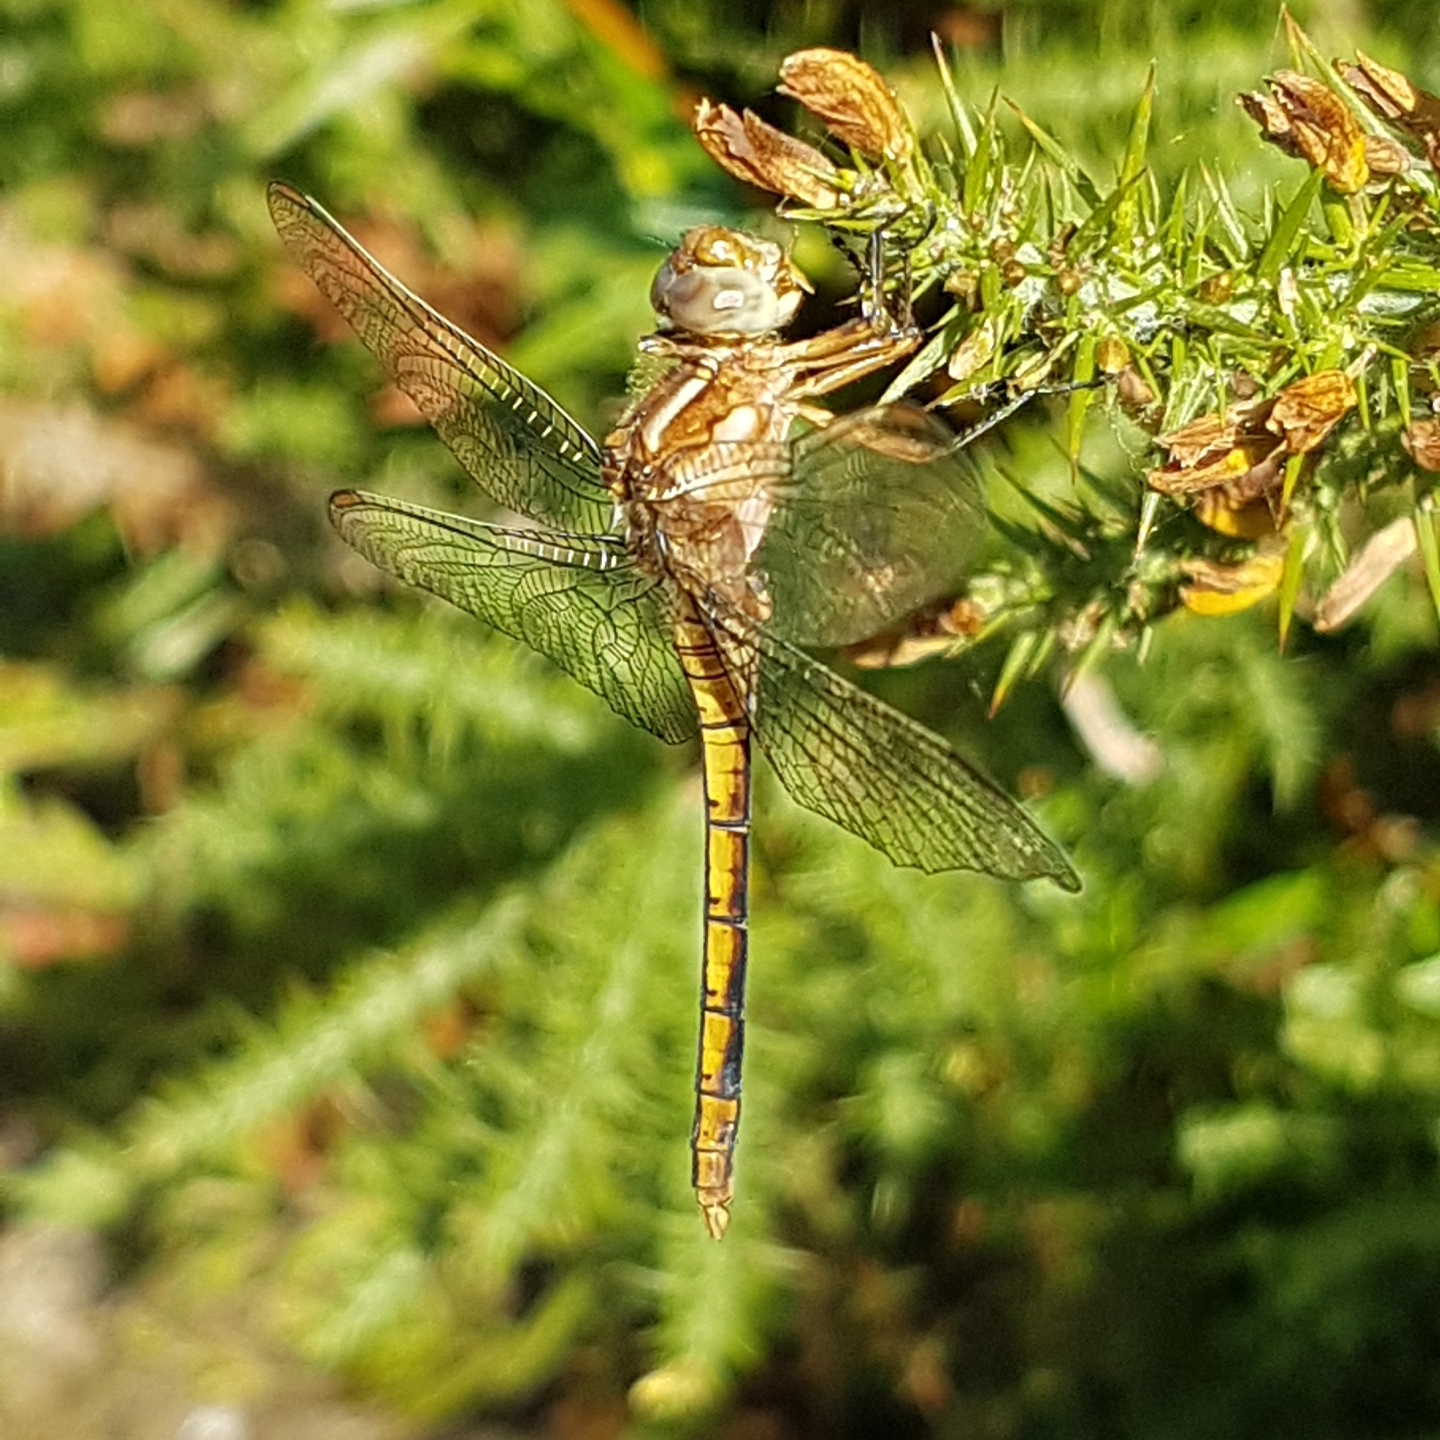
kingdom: Animalia
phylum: Arthropoda
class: Insecta
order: Odonata
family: Libellulidae
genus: Orthetrum
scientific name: Orthetrum coerulescens
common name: Keeled skimmer
